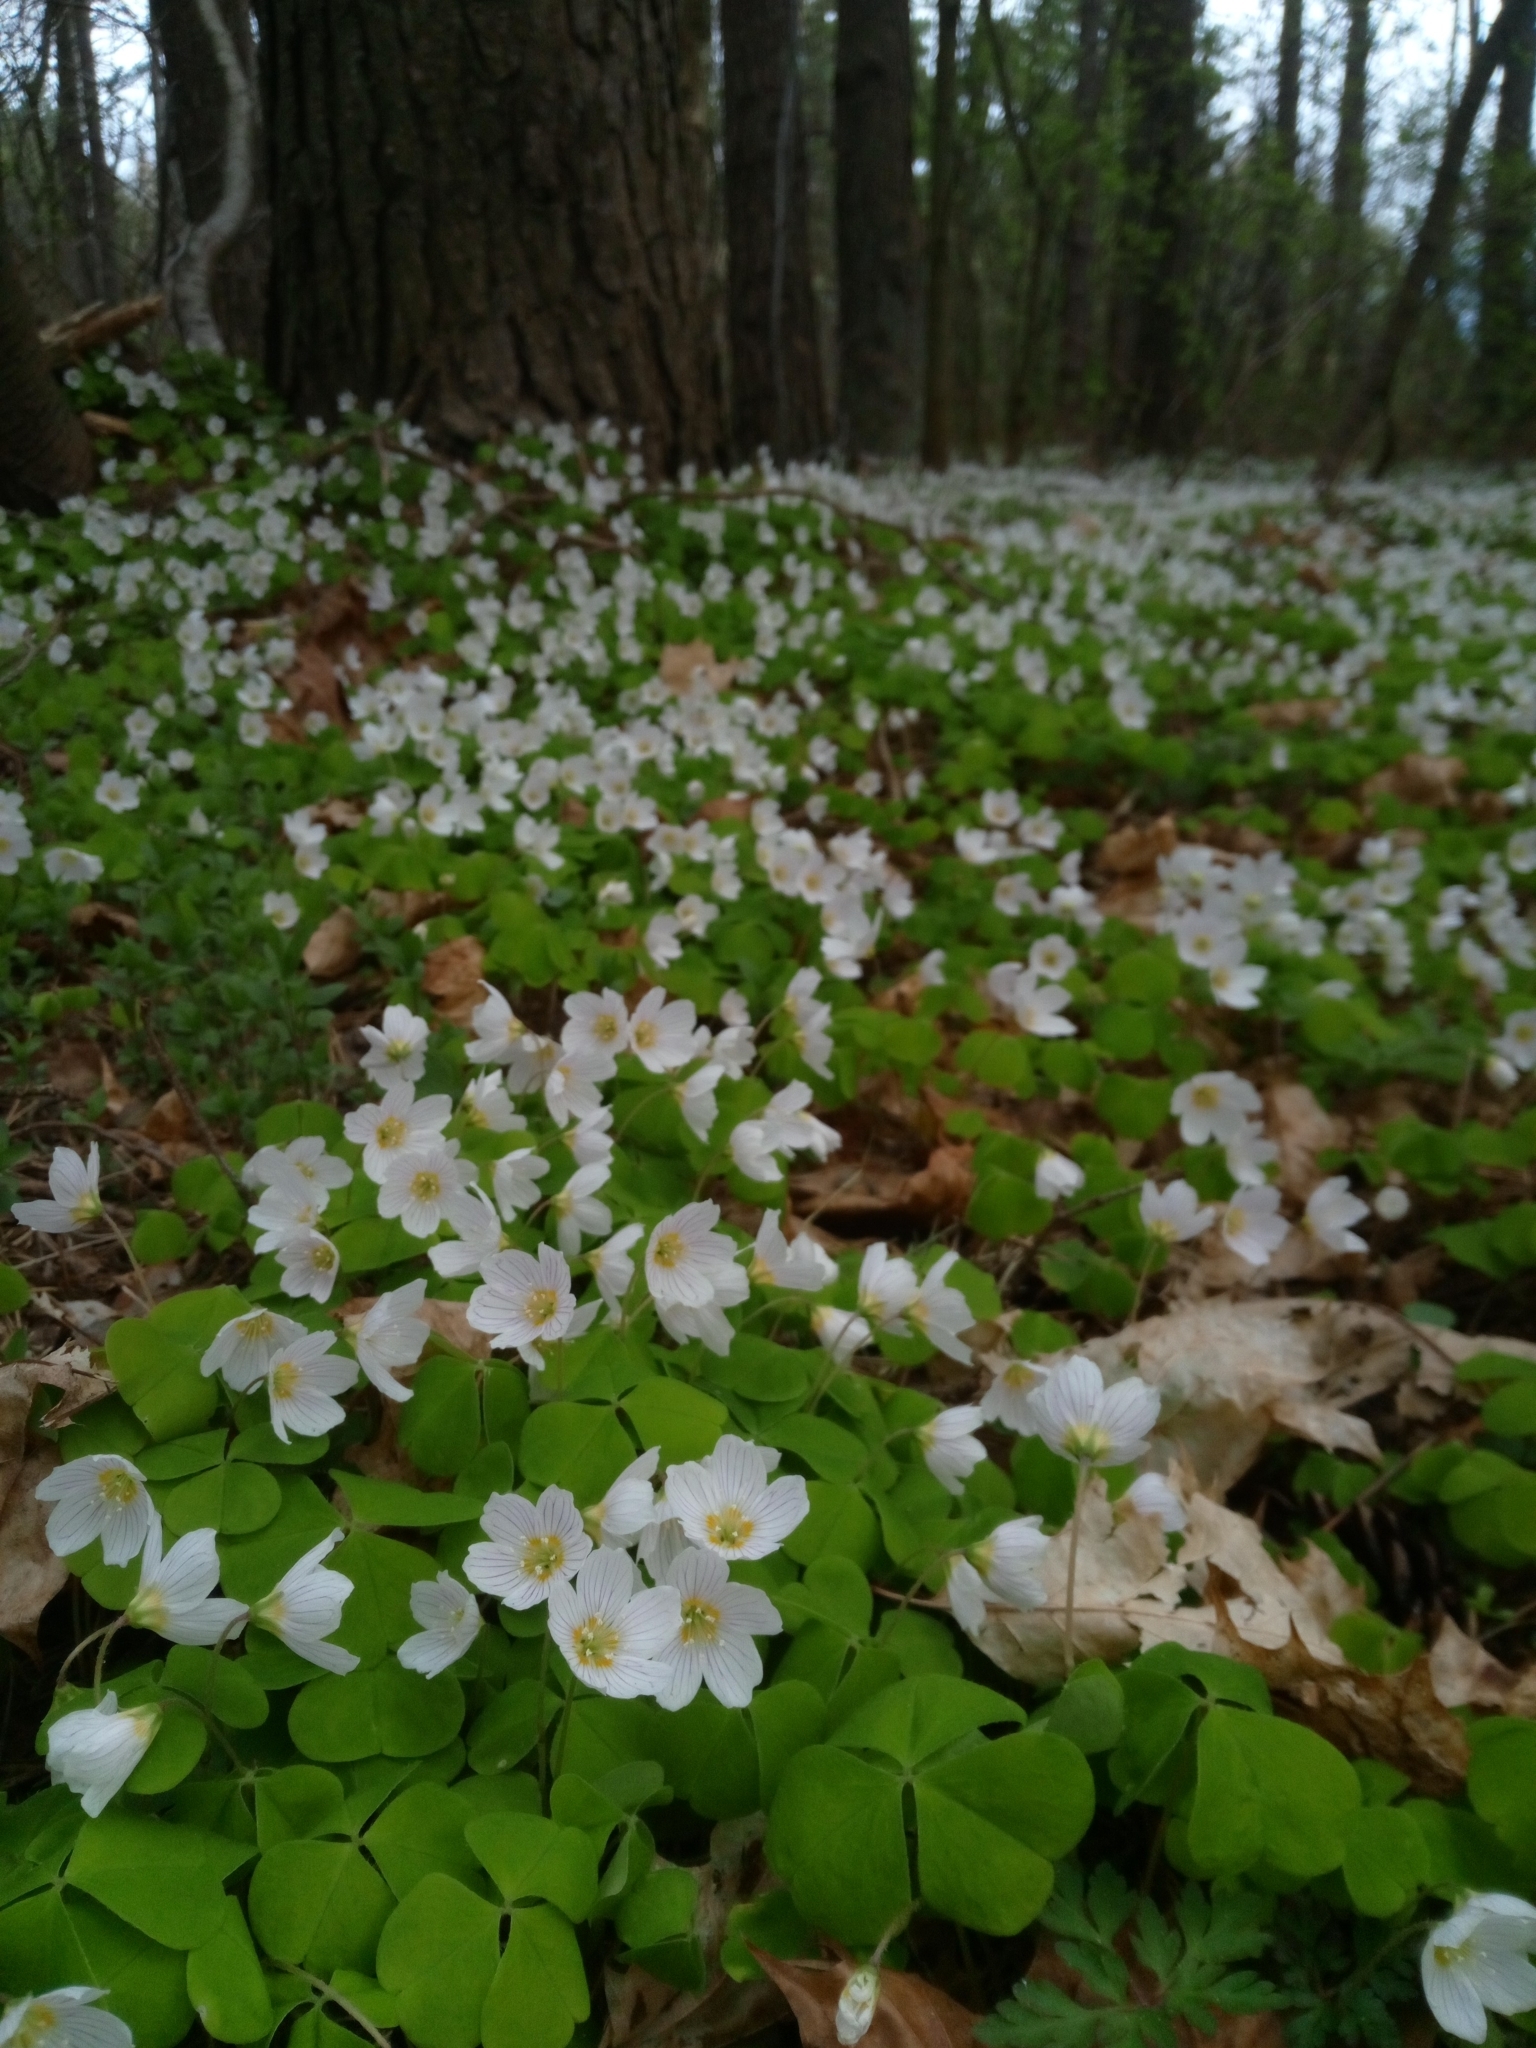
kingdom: Plantae
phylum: Tracheophyta
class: Magnoliopsida
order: Oxalidales
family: Oxalidaceae
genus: Oxalis
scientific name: Oxalis acetosella
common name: Wood-sorrel
